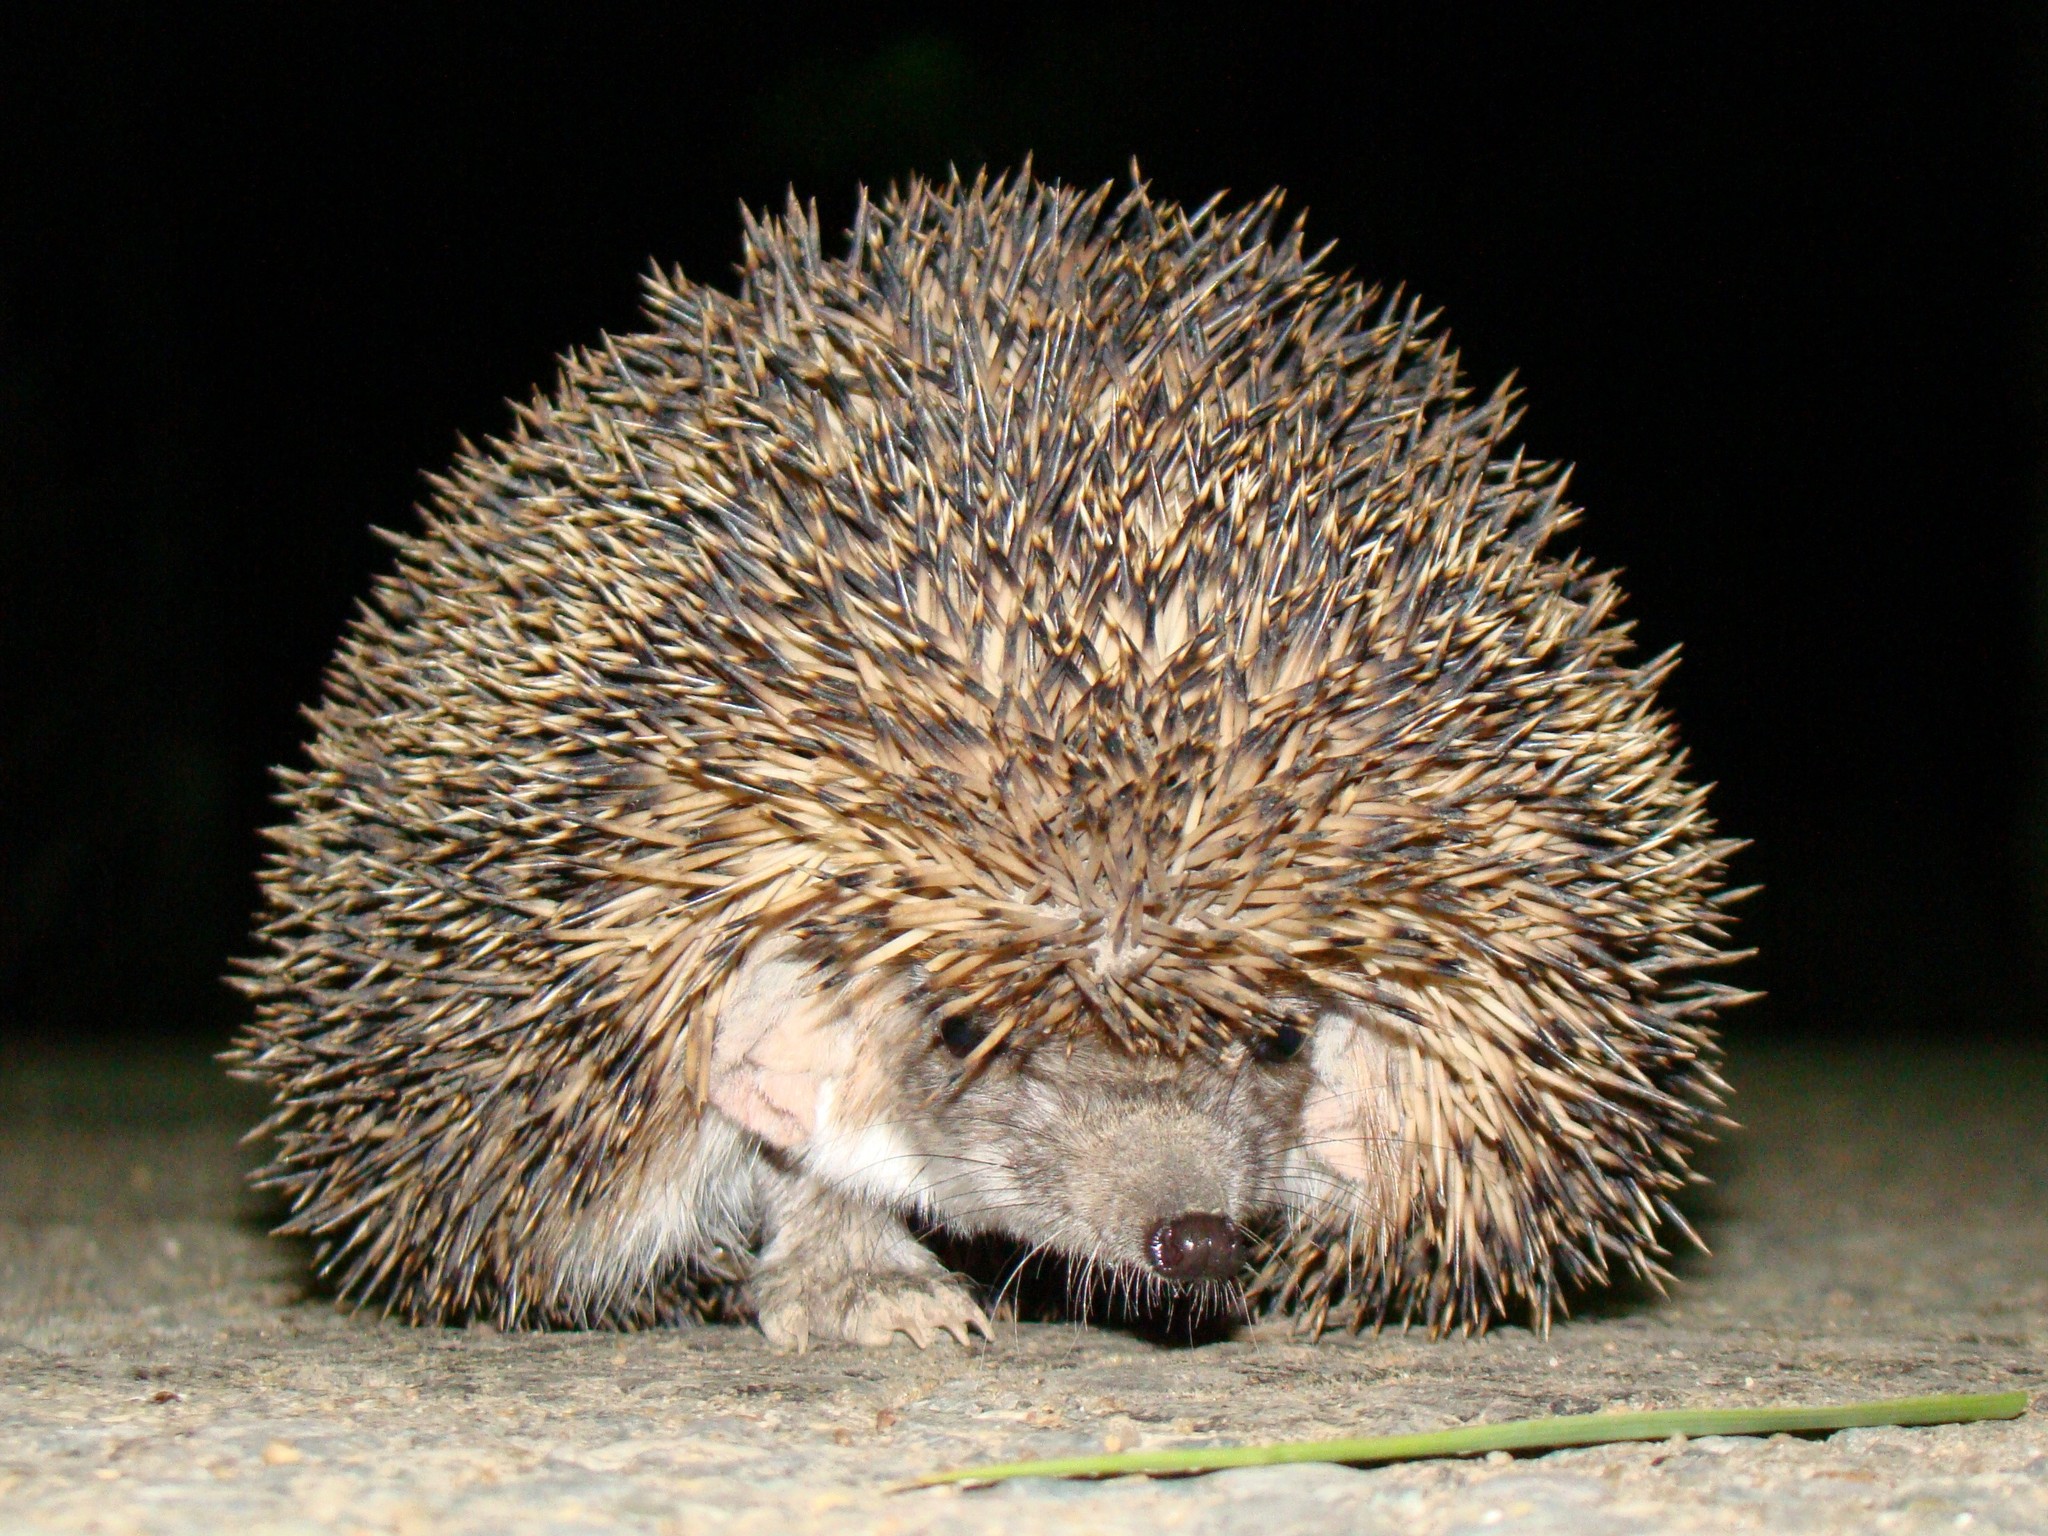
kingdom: Animalia
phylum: Chordata
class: Mammalia
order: Erinaceomorpha
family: Erinaceidae
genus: Hemiechinus
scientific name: Hemiechinus auritus
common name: Long-eared hedgehog
